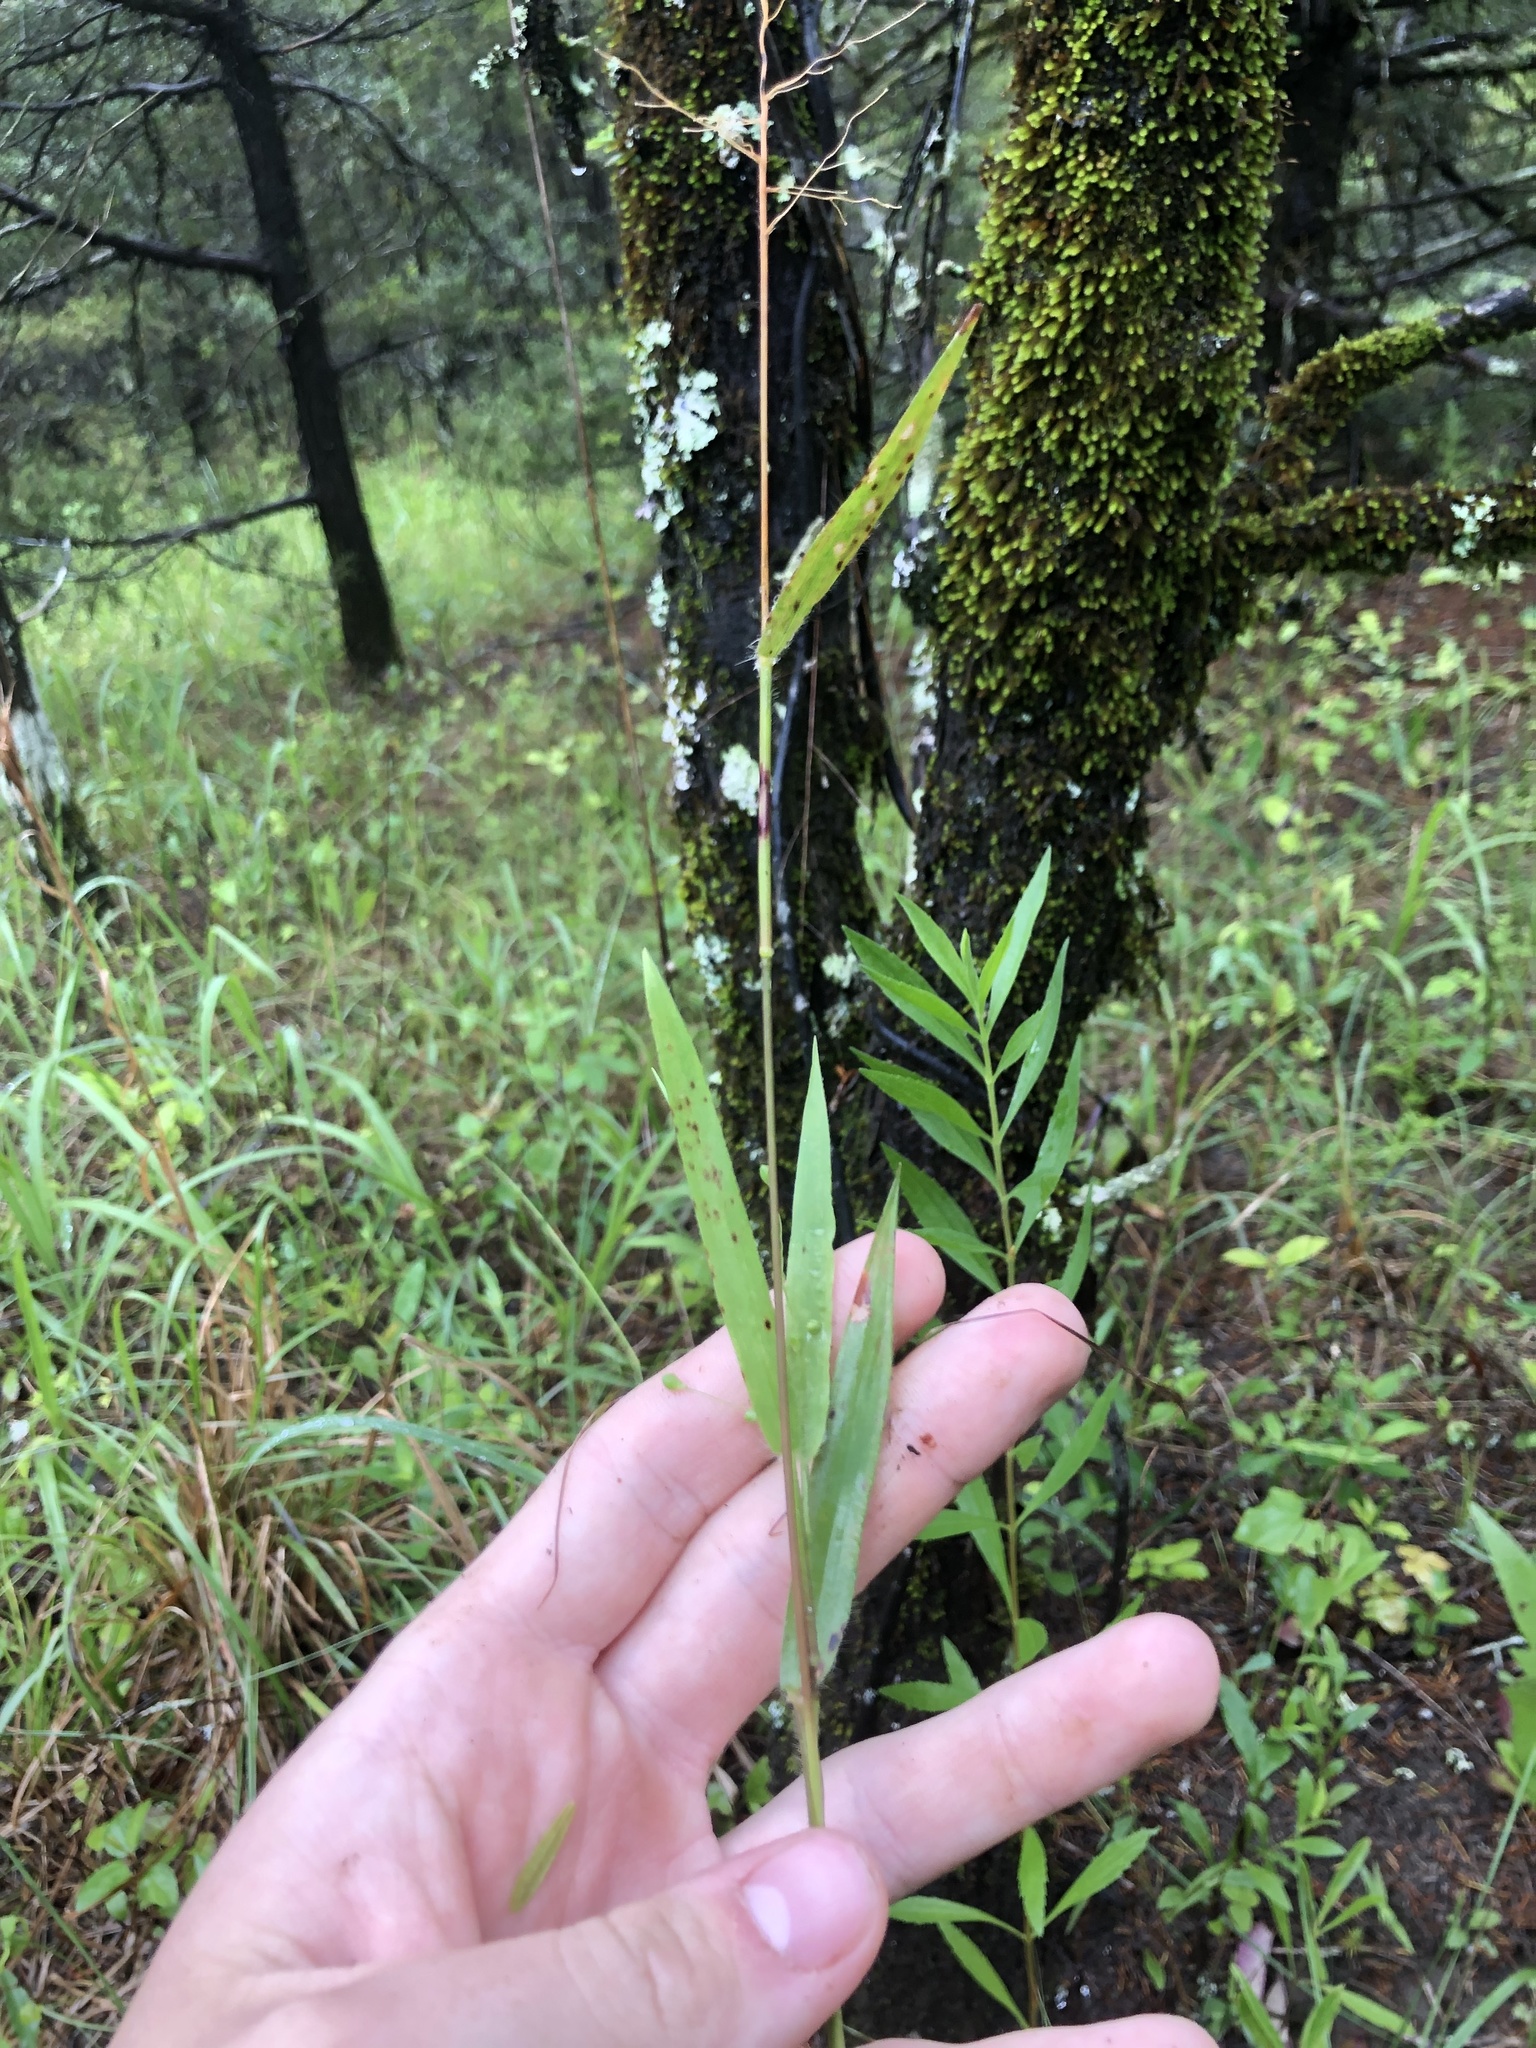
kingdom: Plantae
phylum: Tracheophyta
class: Liliopsida
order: Poales
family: Poaceae
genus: Dichanthelium
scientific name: Dichanthelium scribnerianum
